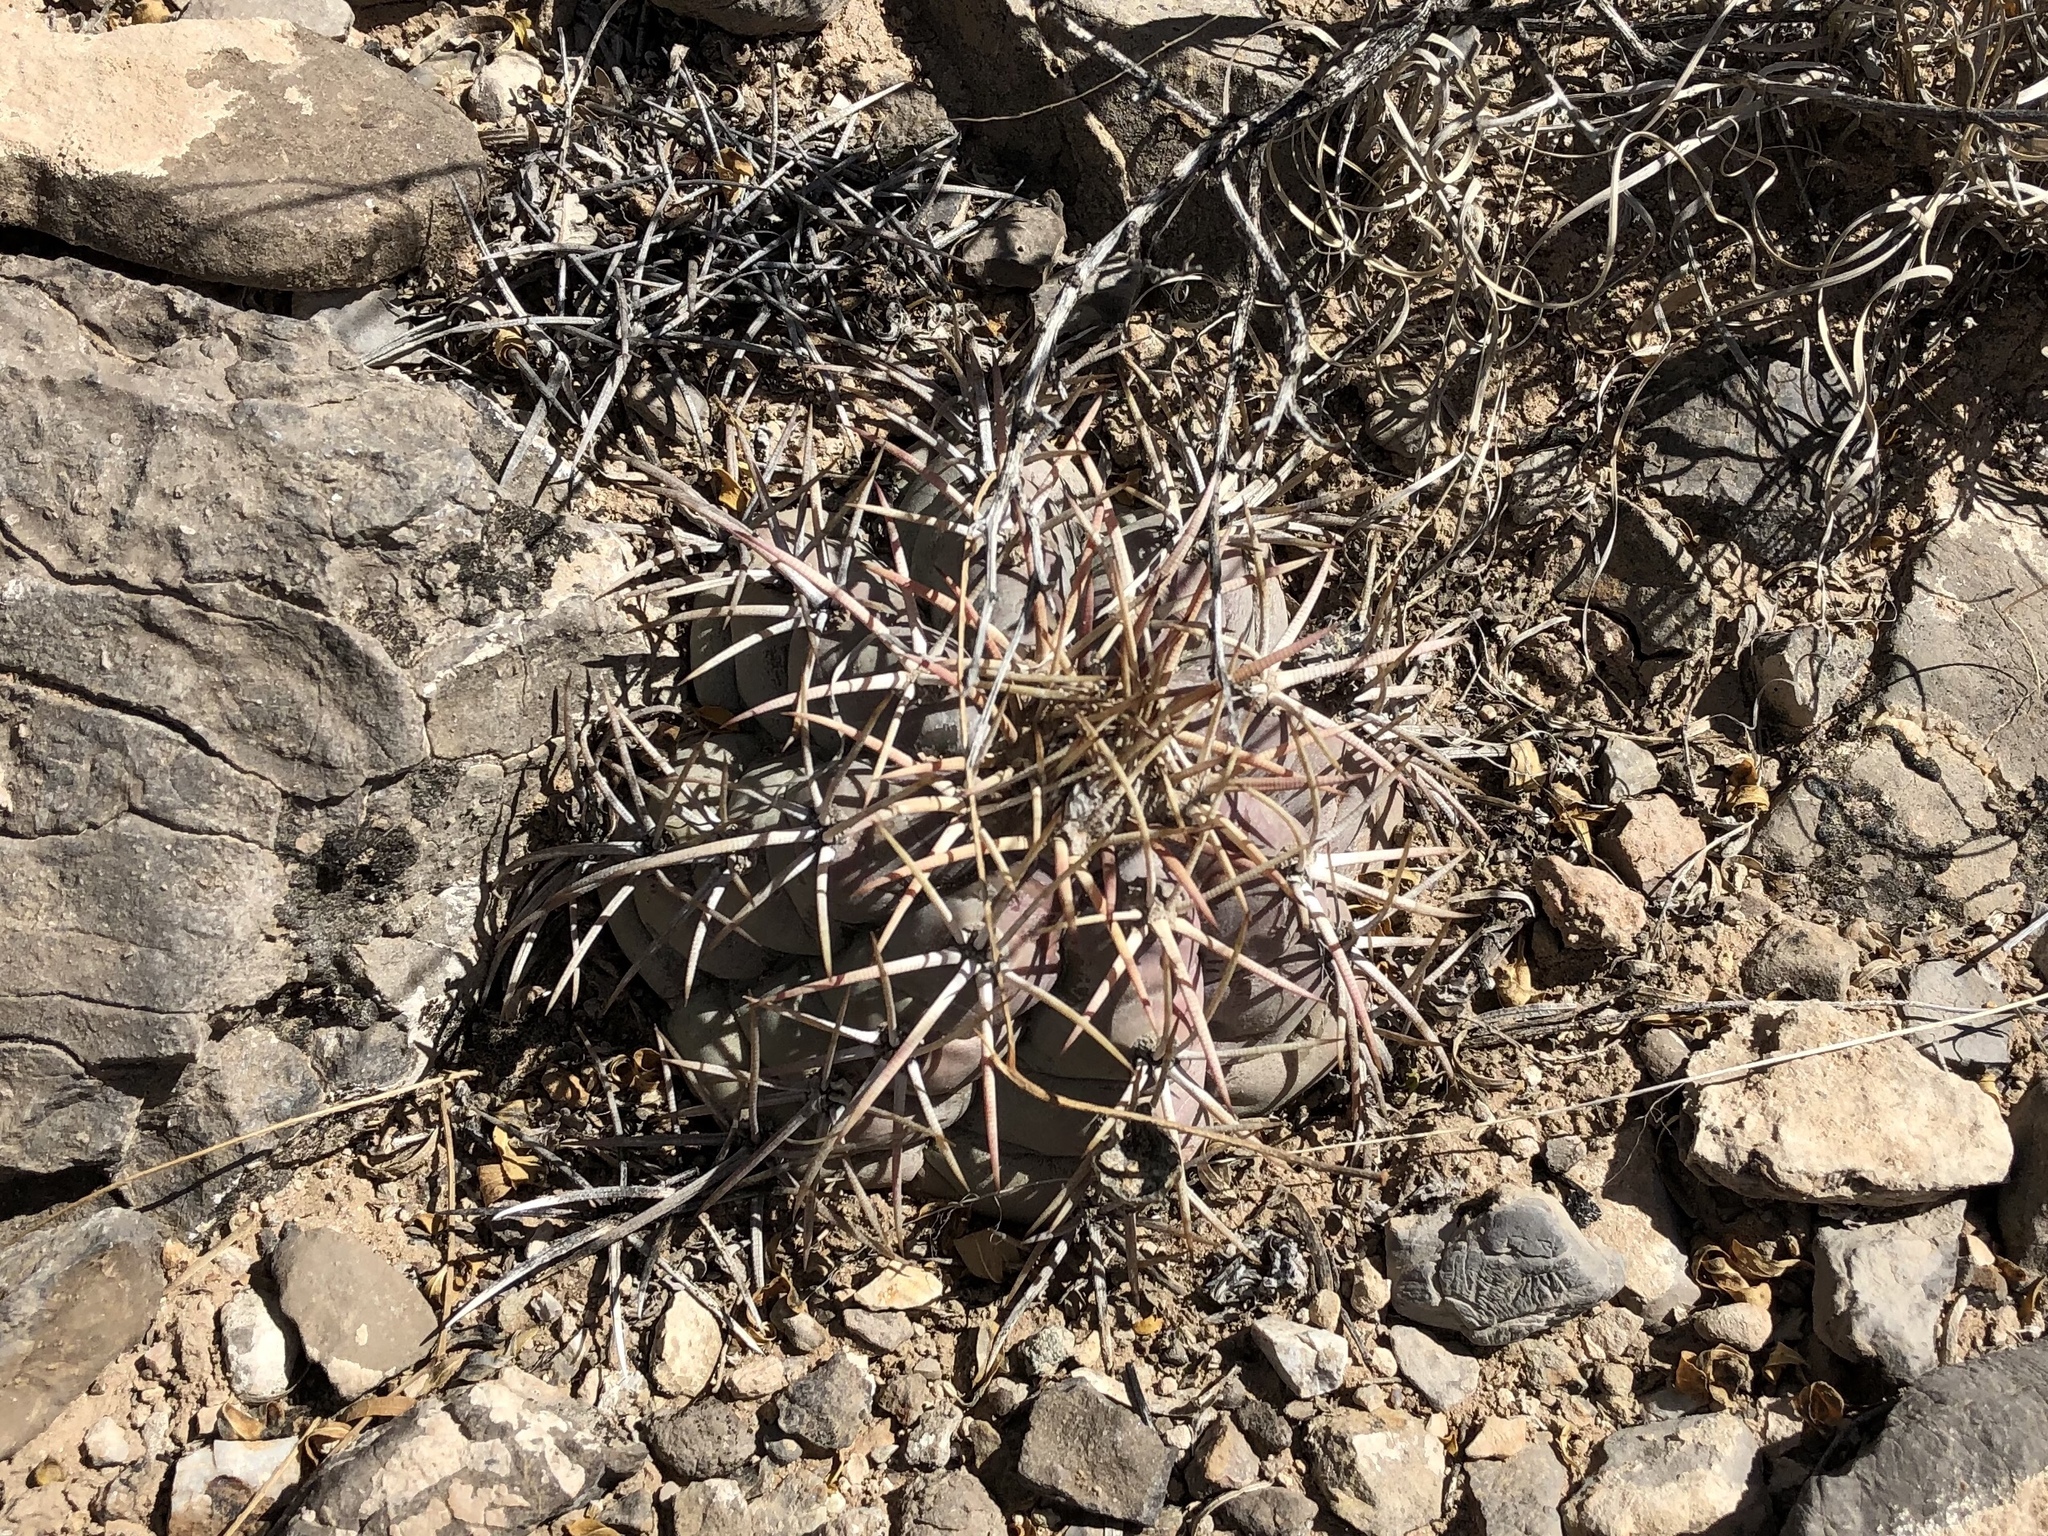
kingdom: Plantae
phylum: Tracheophyta
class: Magnoliopsida
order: Caryophyllales
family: Cactaceae
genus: Echinocactus
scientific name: Echinocactus horizonthalonius
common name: Devilshead
